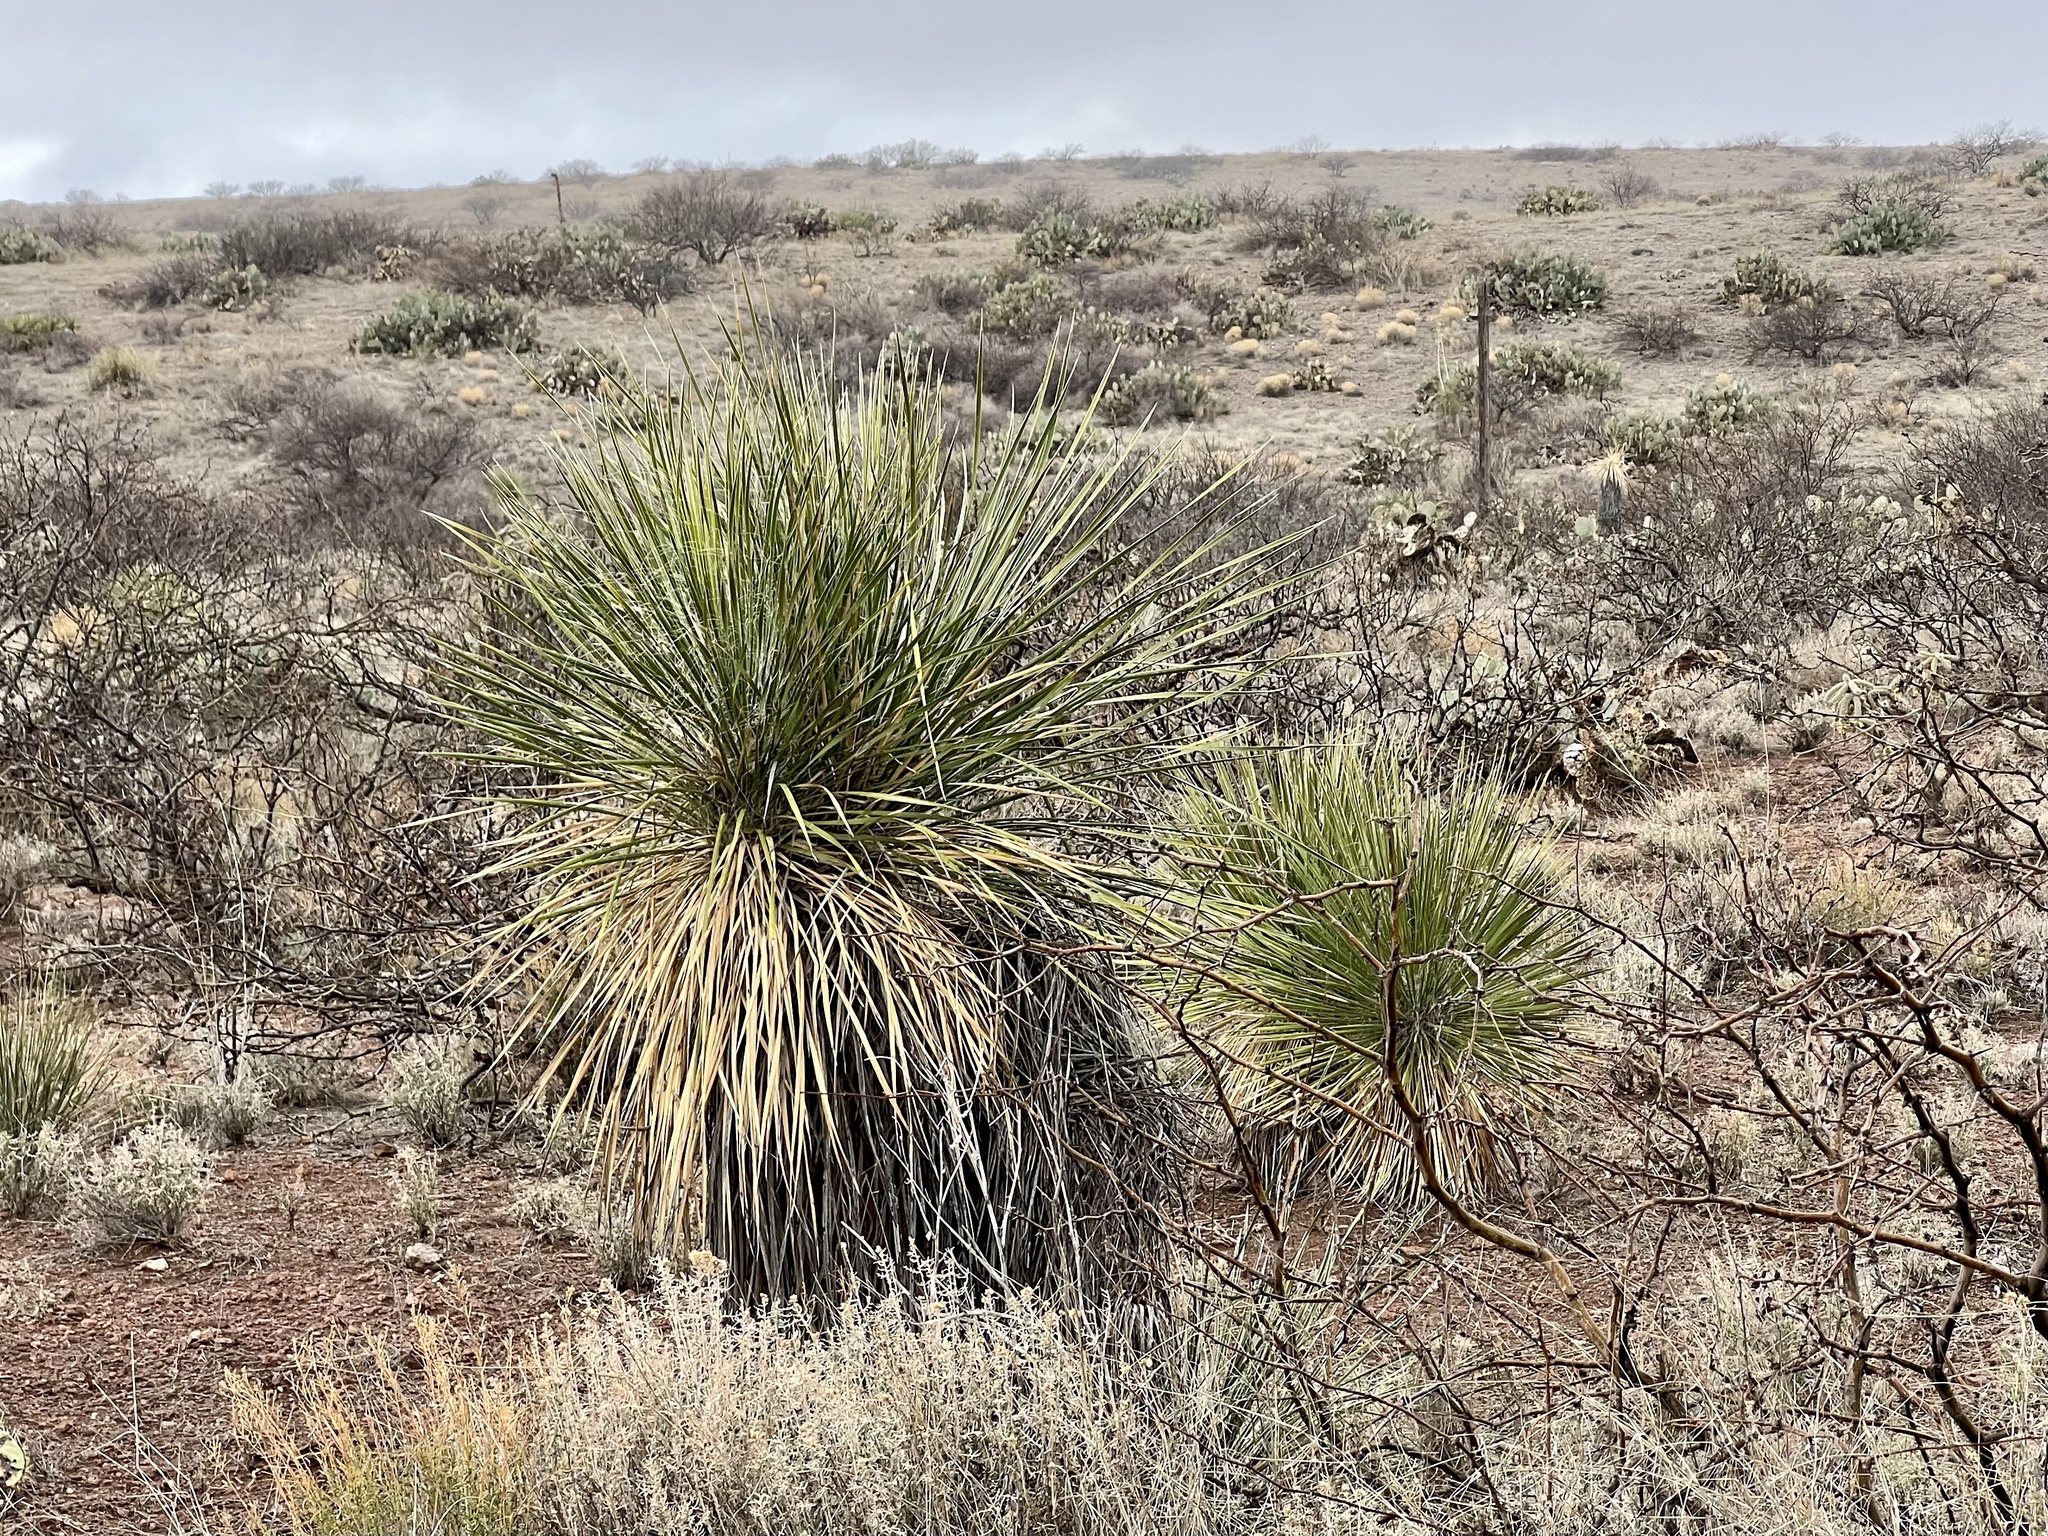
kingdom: Plantae
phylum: Tracheophyta
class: Liliopsida
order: Asparagales
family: Asparagaceae
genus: Yucca
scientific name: Yucca elata
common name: Palmella
